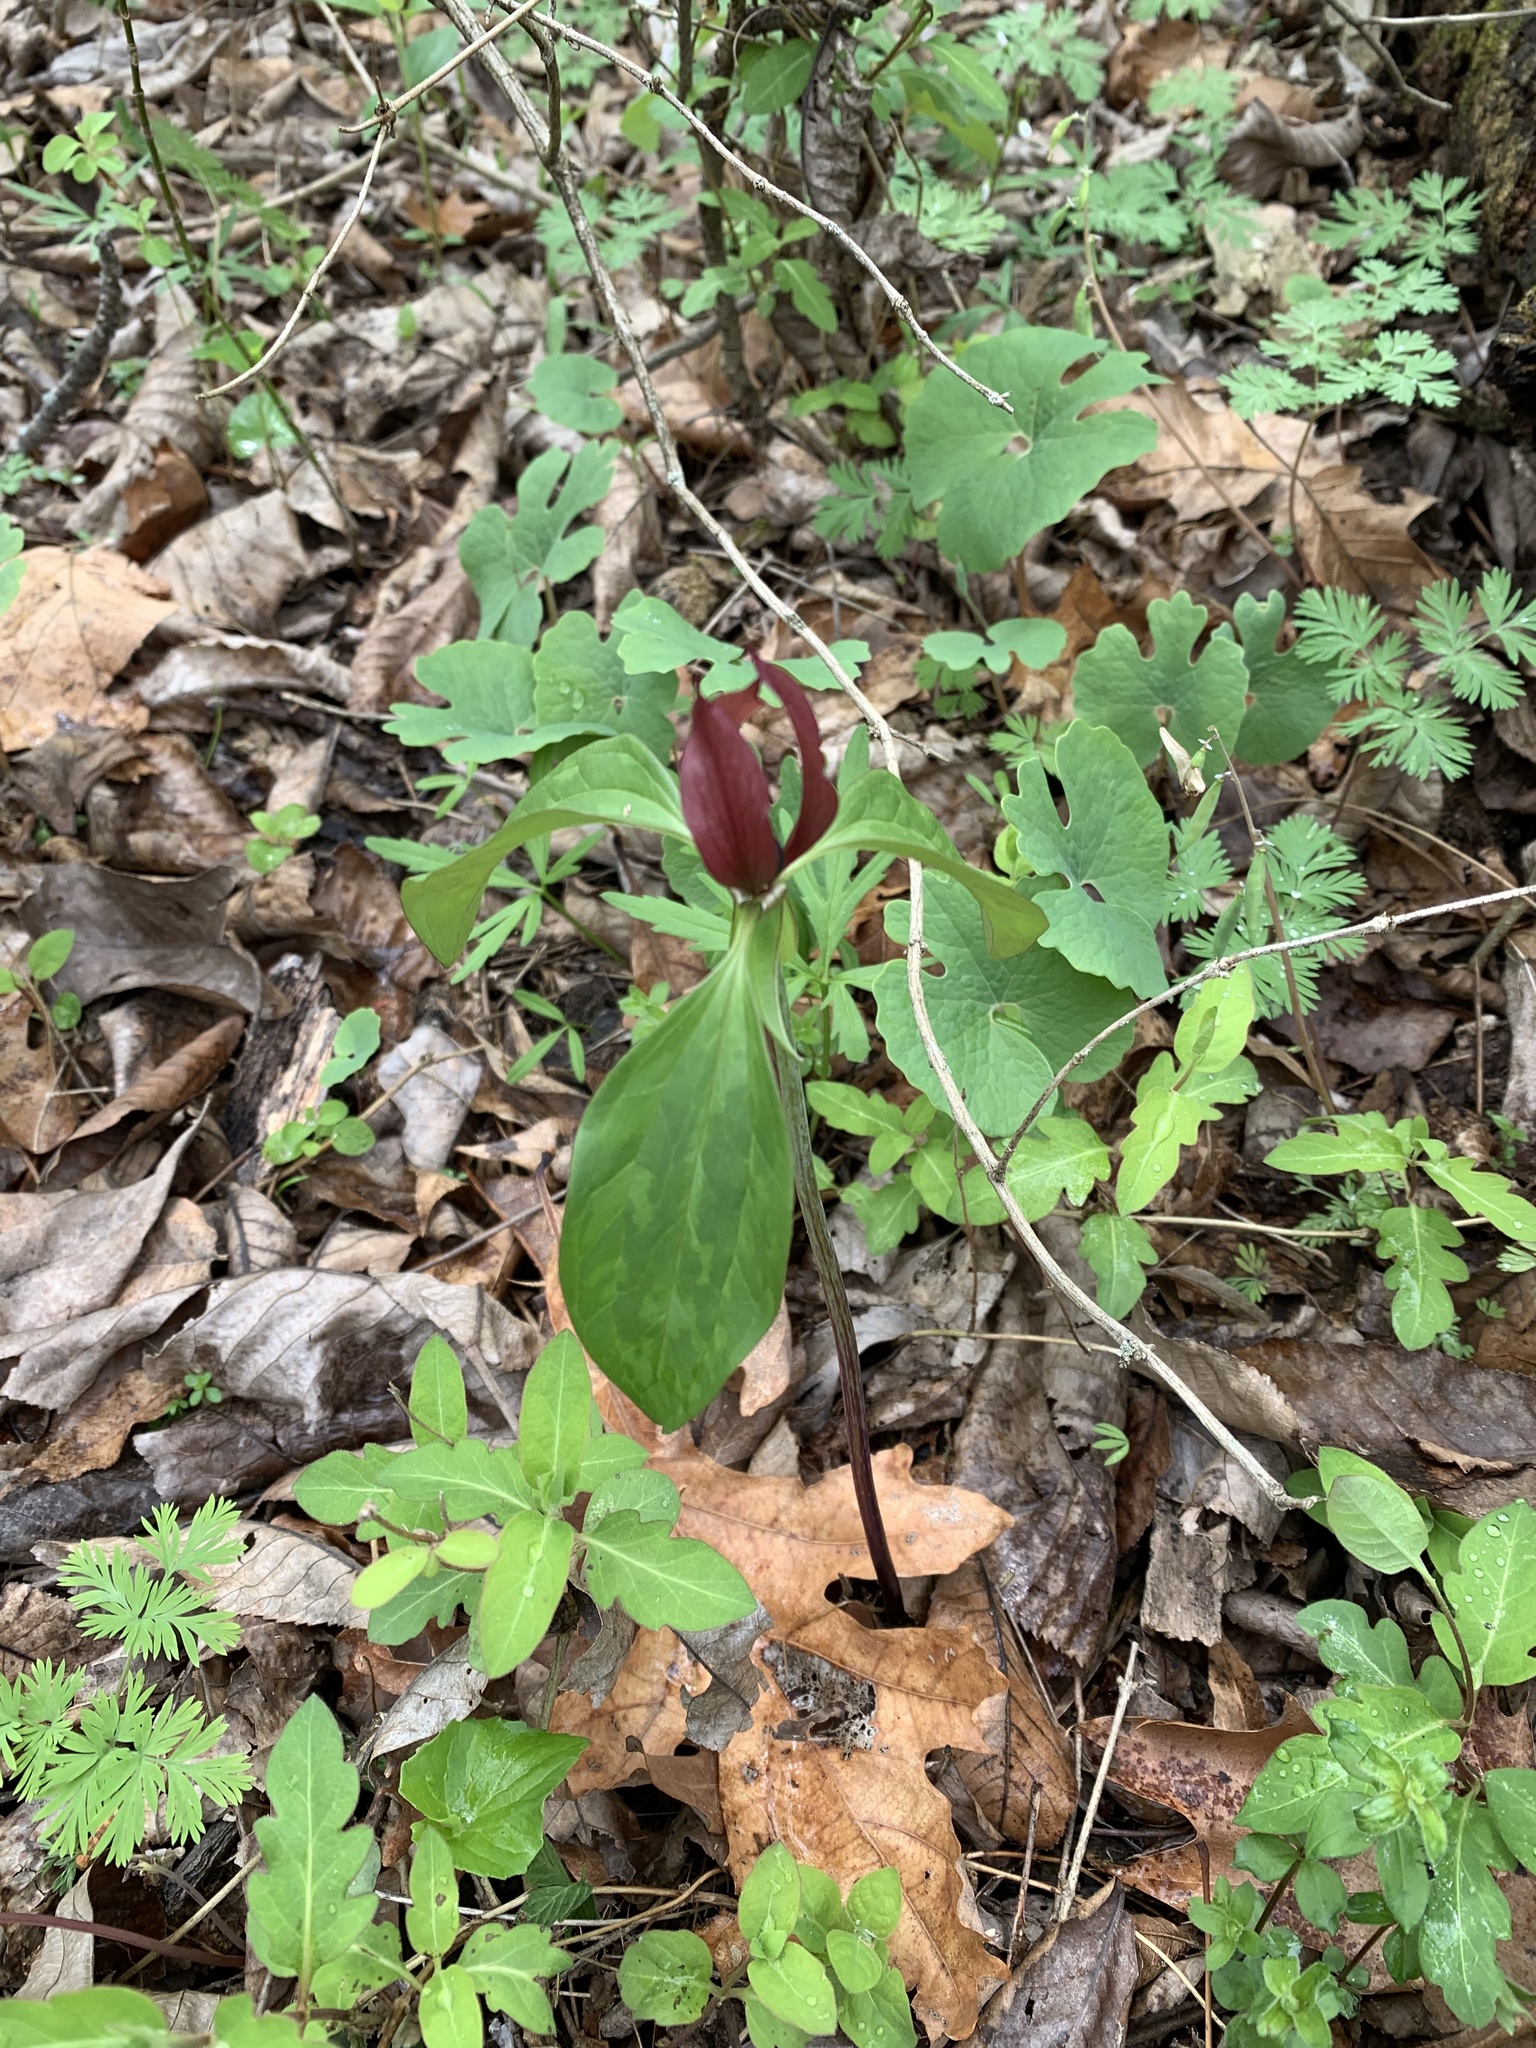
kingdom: Plantae
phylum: Tracheophyta
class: Liliopsida
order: Liliales
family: Melanthiaceae
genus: Trillium
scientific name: Trillium recurvatum
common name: Bloody butcher
